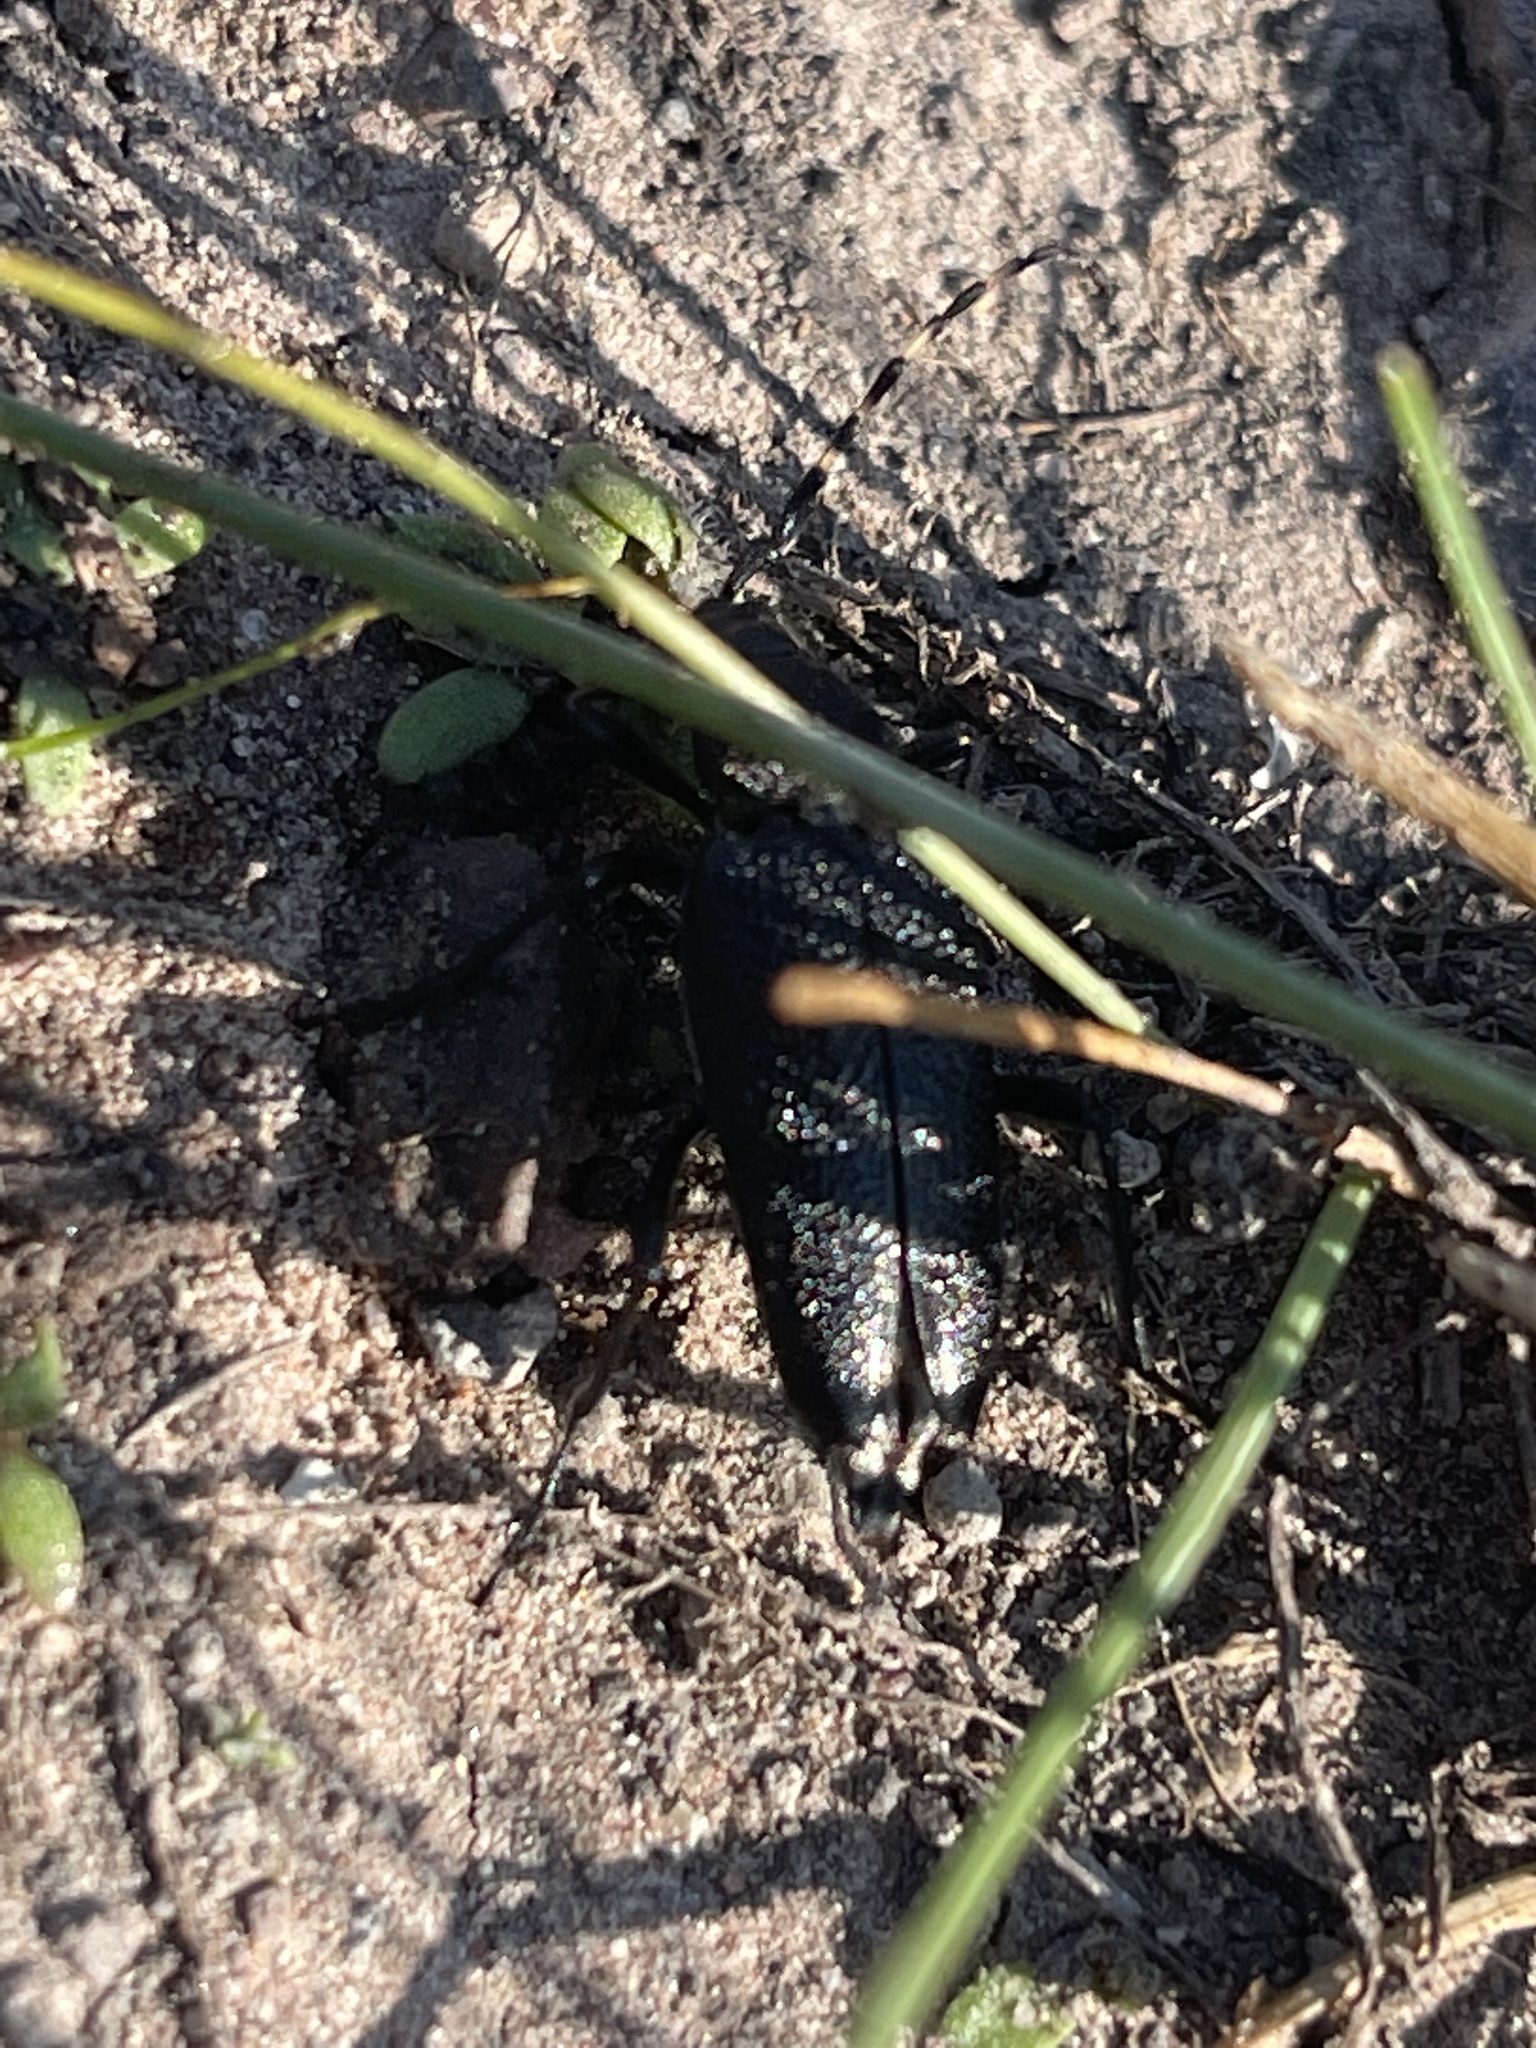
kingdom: Animalia
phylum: Arthropoda
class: Insecta
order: Coleoptera
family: Cerambycidae
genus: Monochamus
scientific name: Monochamus scutellatus
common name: White-spotted sawyer beetle
